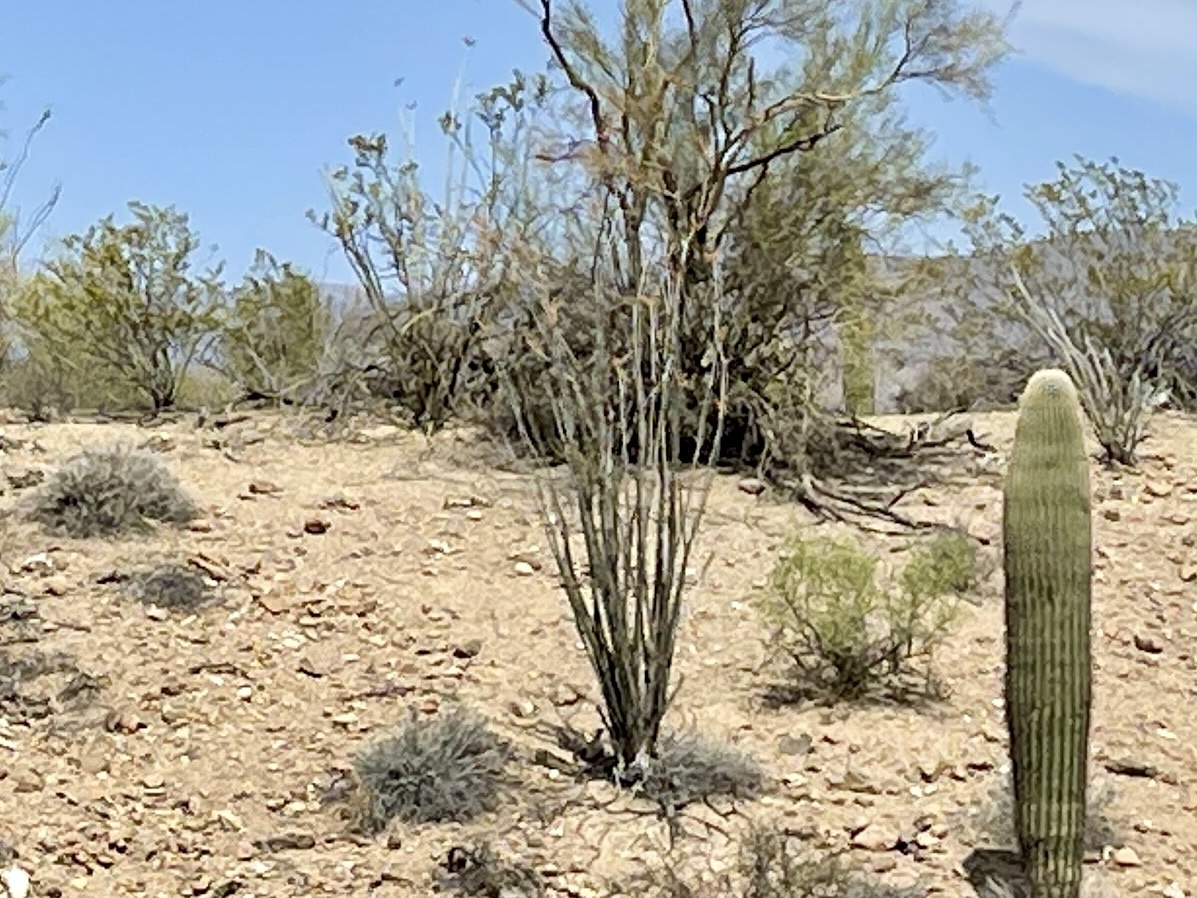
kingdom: Plantae
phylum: Tracheophyta
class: Magnoliopsida
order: Ericales
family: Fouquieriaceae
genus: Fouquieria
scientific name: Fouquieria splendens
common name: Vine-cactus
